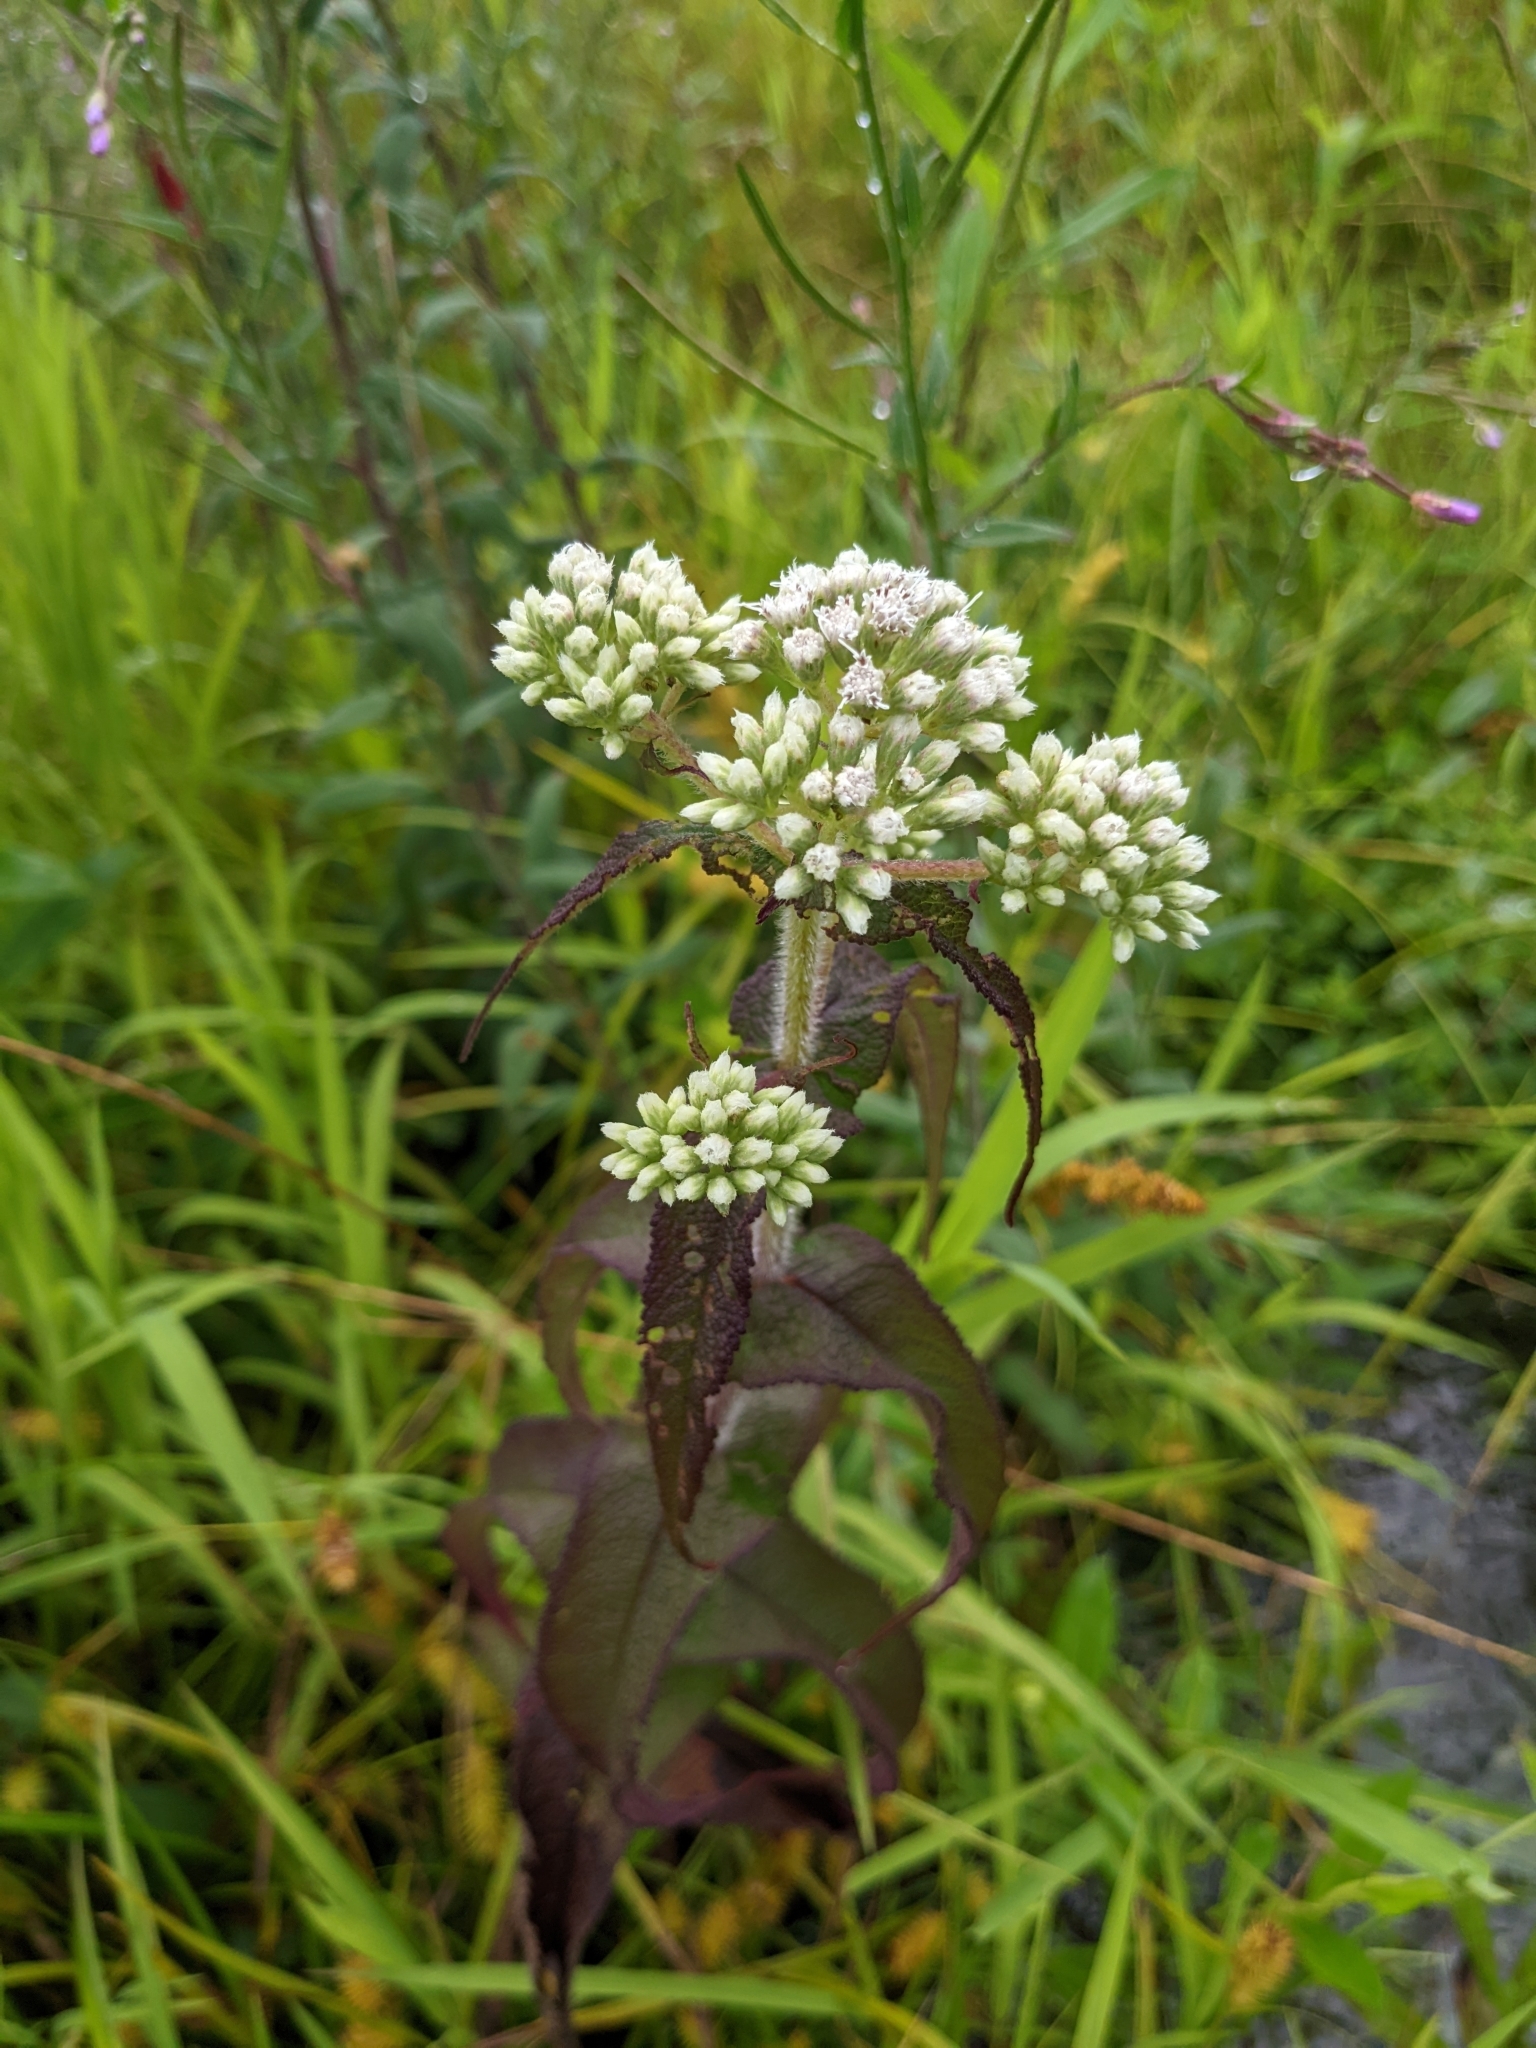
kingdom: Plantae
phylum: Tracheophyta
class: Magnoliopsida
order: Asterales
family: Asteraceae
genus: Eupatorium
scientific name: Eupatorium perfoliatum
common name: Boneset
